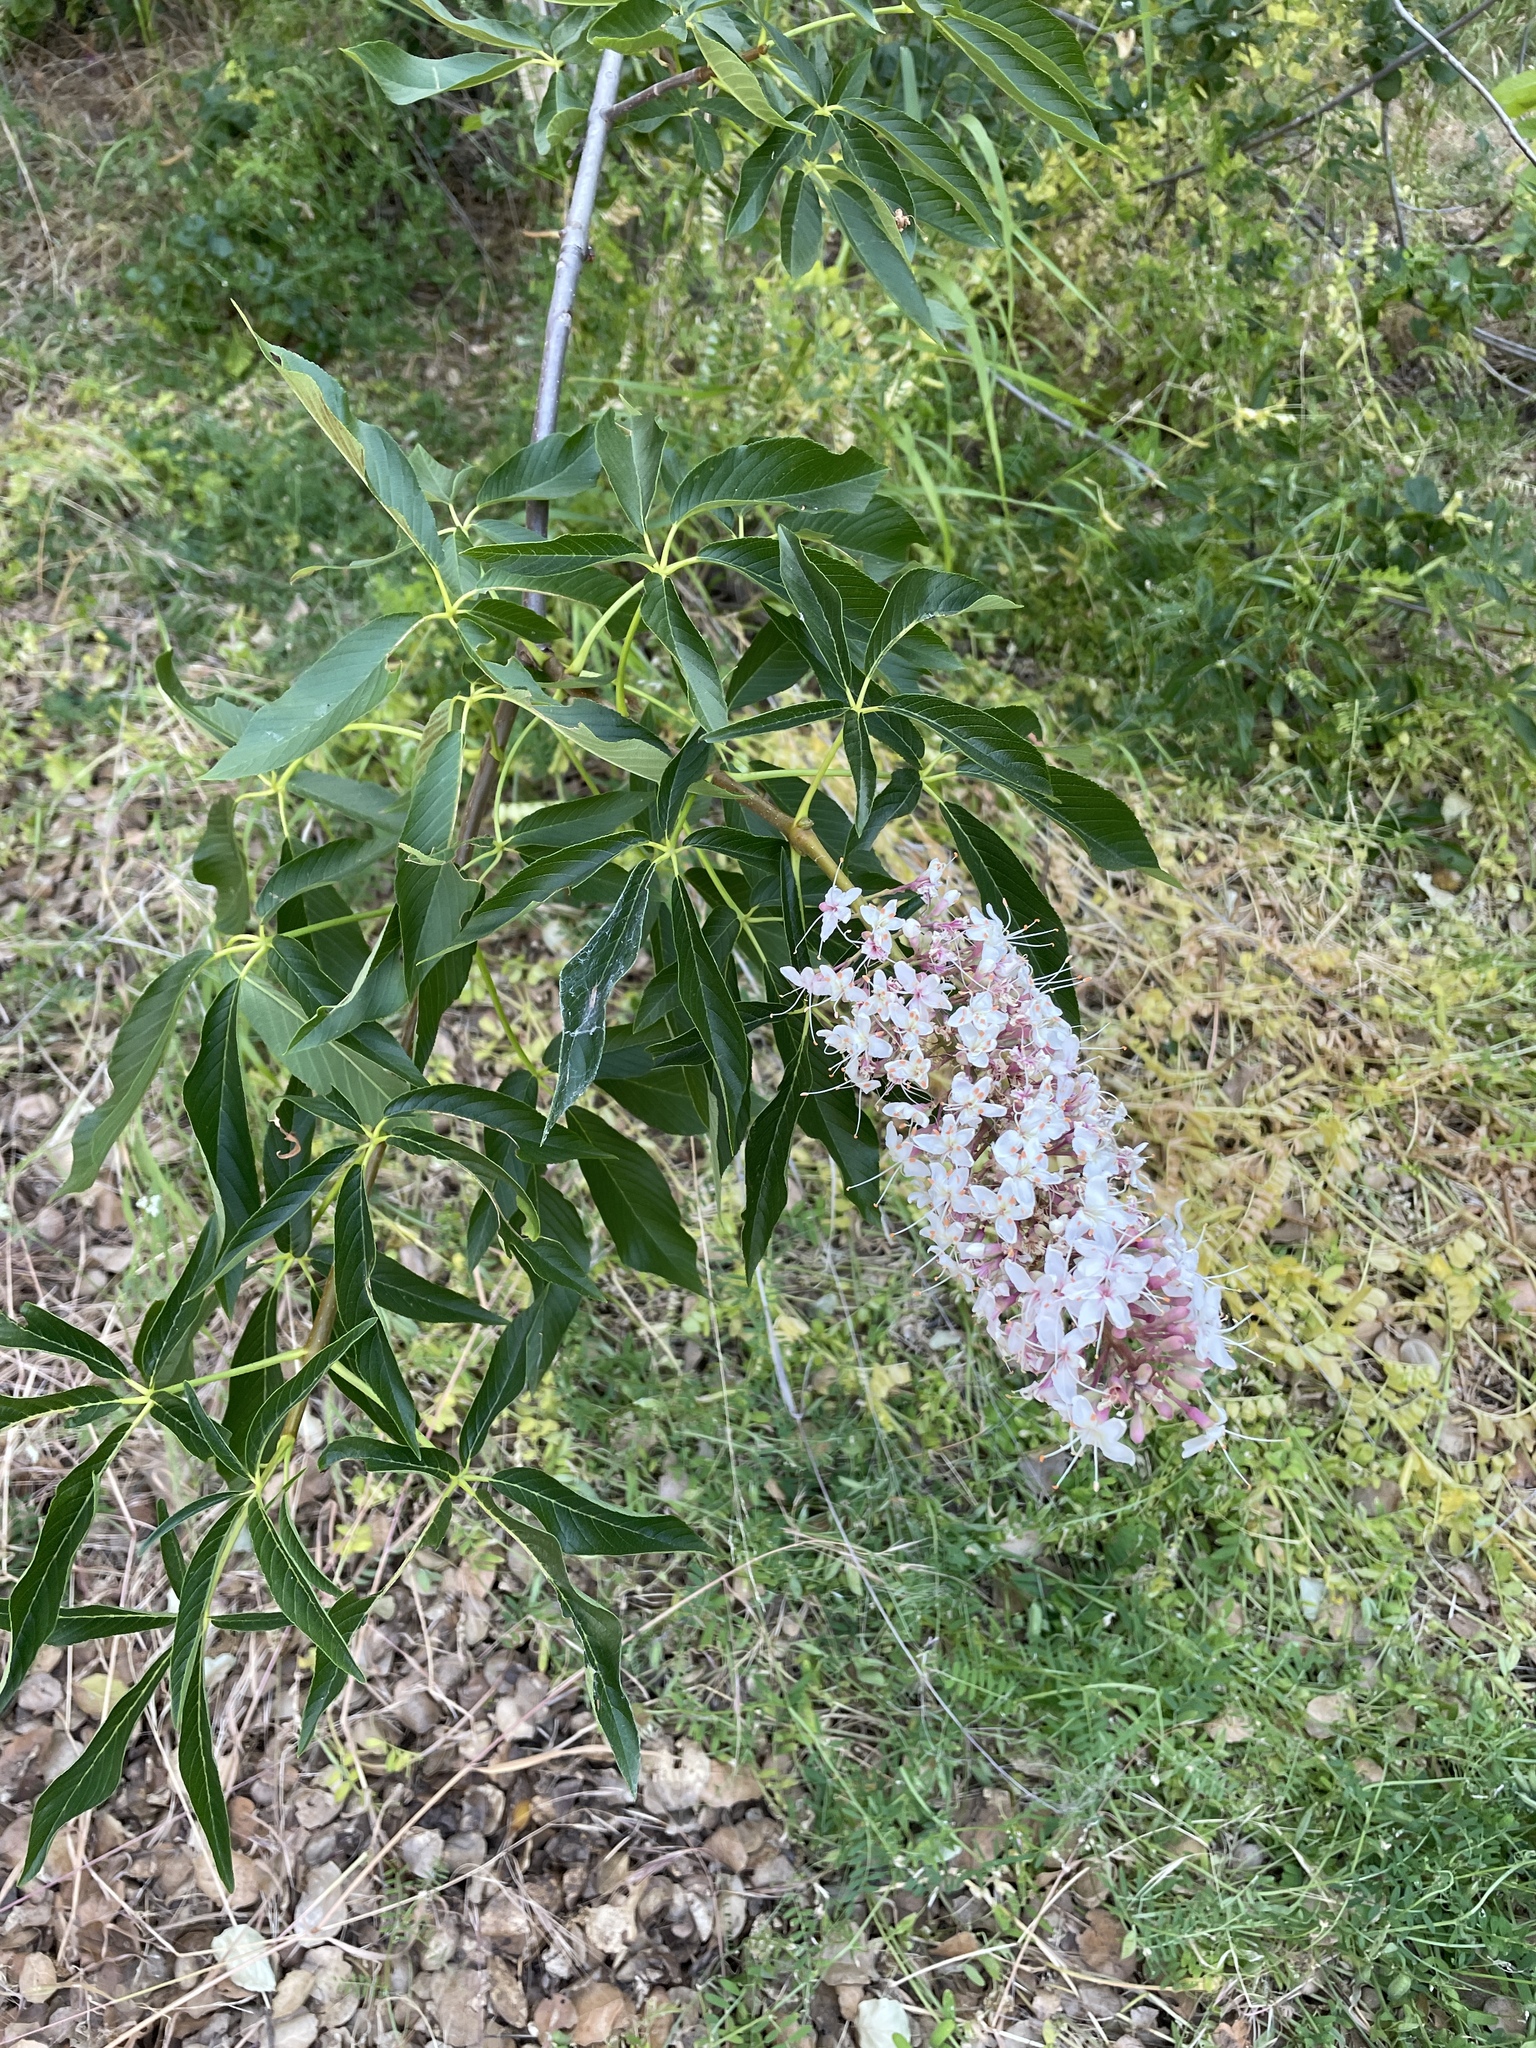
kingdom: Plantae
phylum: Tracheophyta
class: Magnoliopsida
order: Sapindales
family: Sapindaceae
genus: Aesculus
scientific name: Aesculus californica
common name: California buckeye
